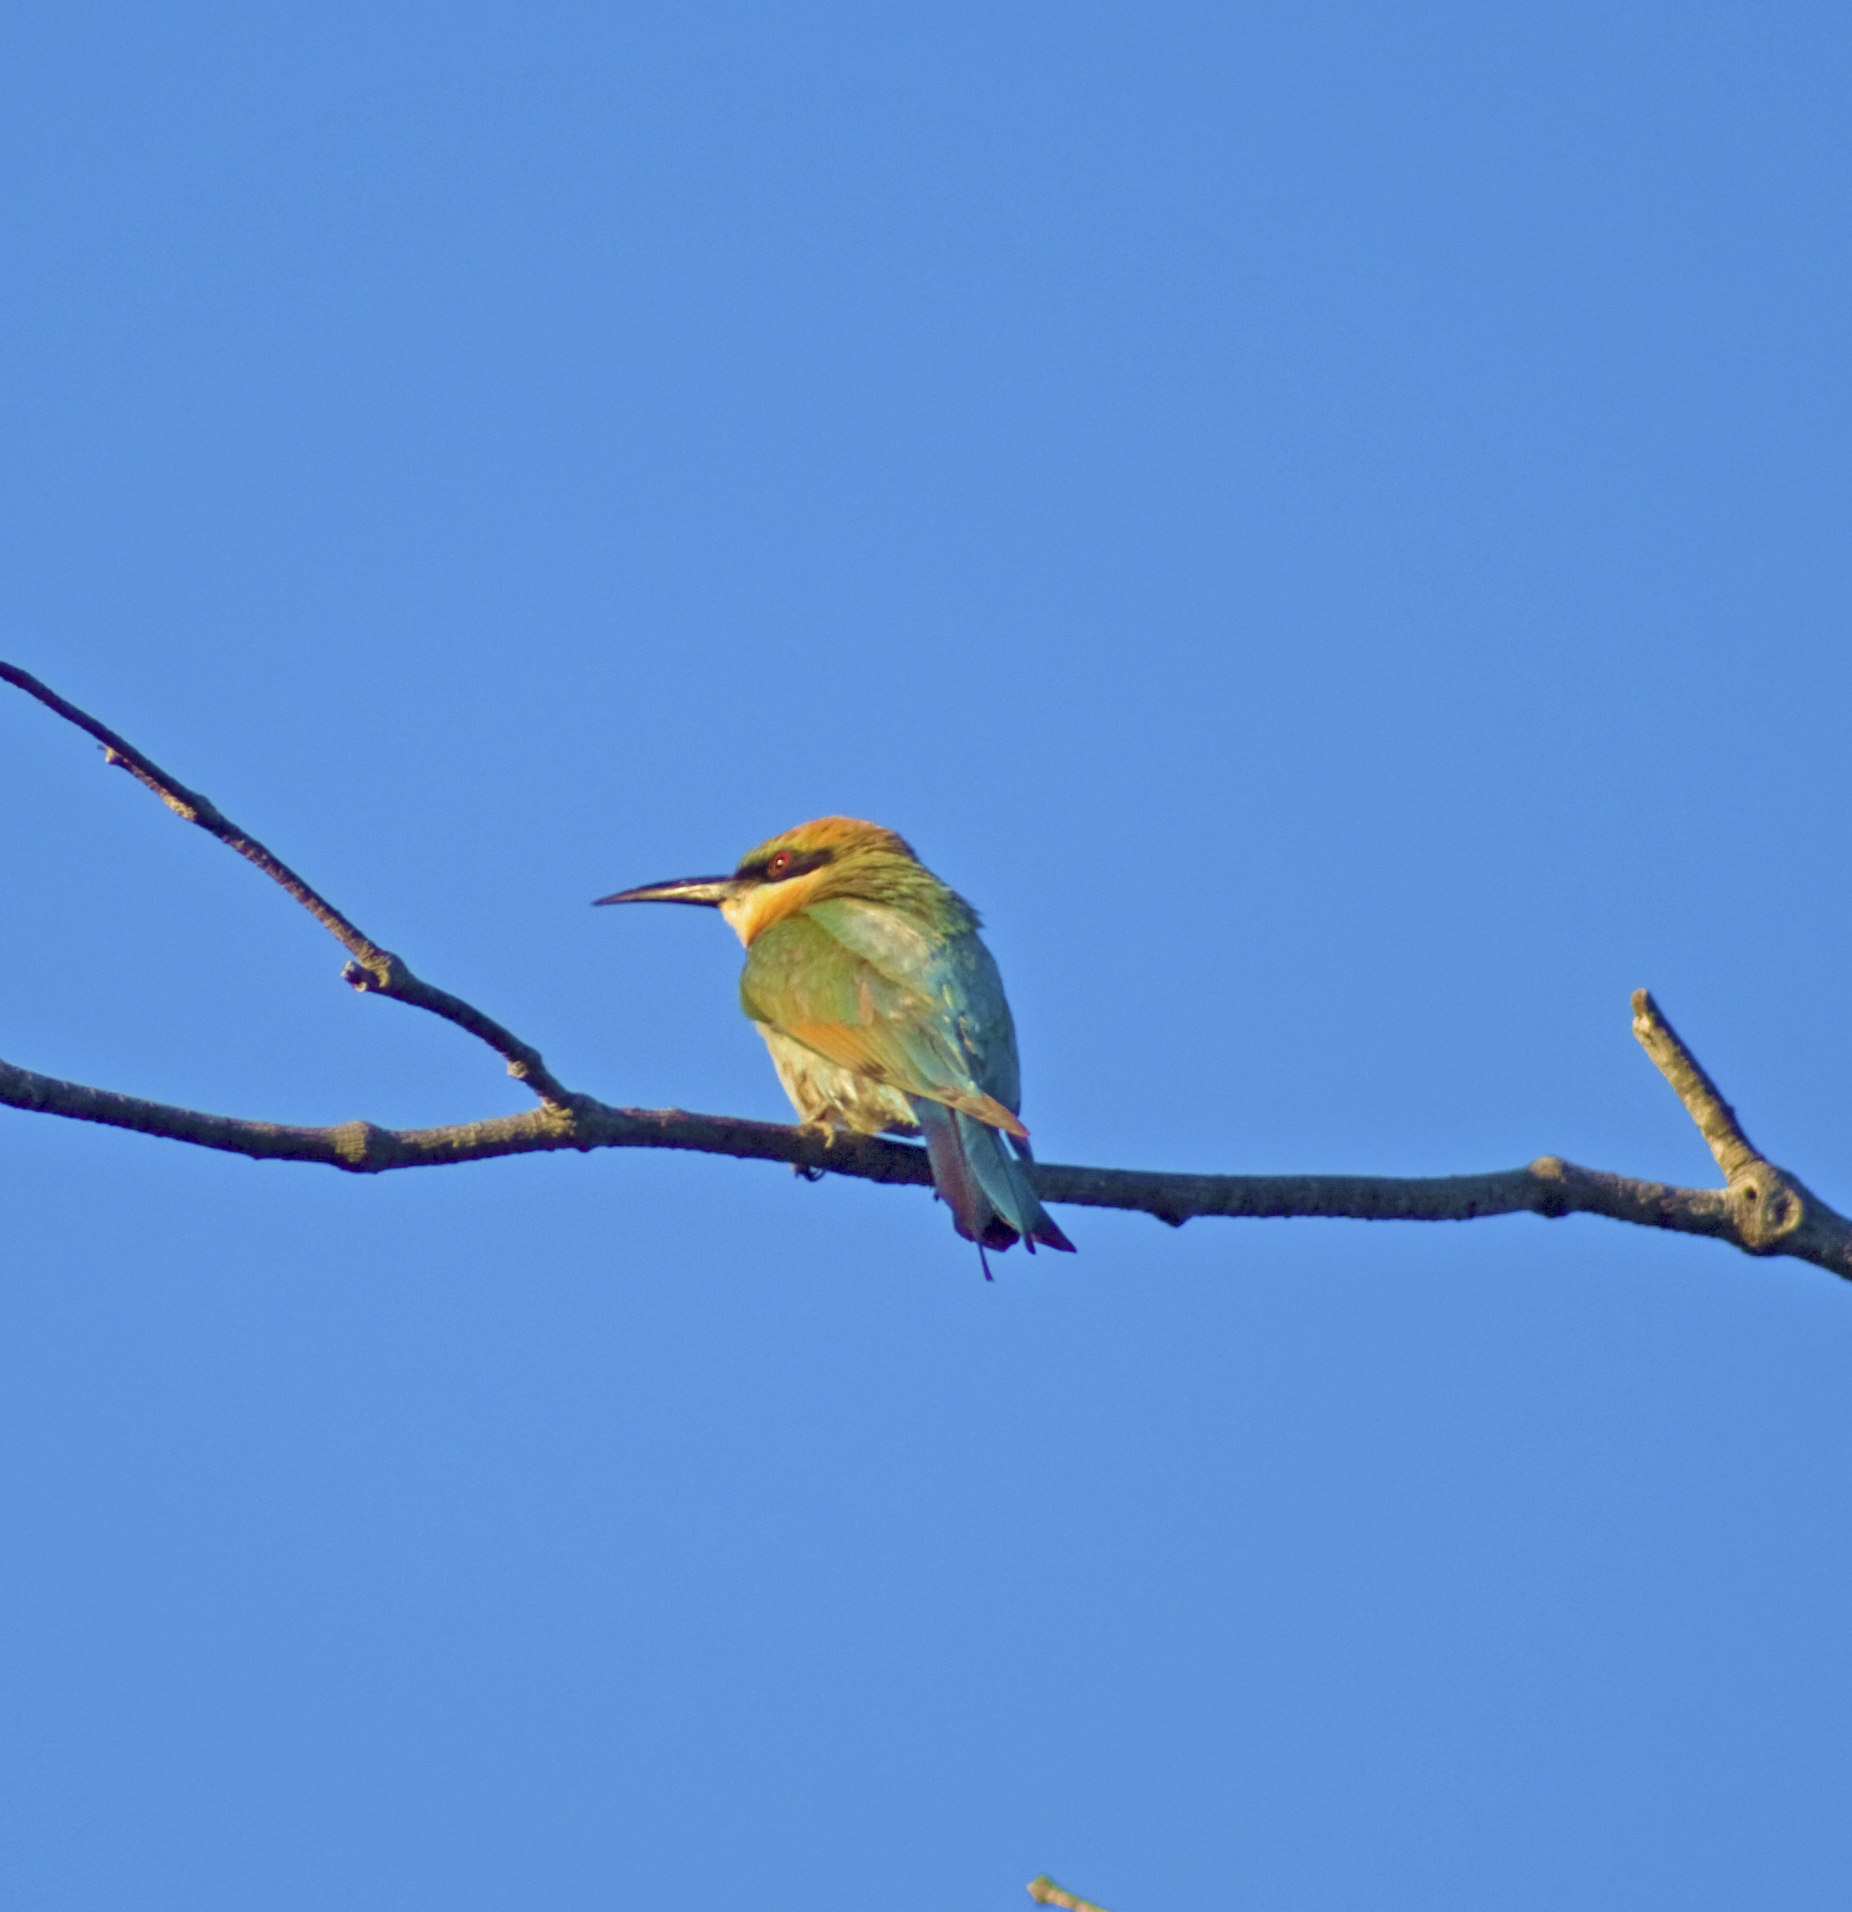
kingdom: Animalia
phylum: Chordata
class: Aves
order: Coraciiformes
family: Meropidae
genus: Merops
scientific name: Merops ornatus
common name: Rainbow bee-eater
